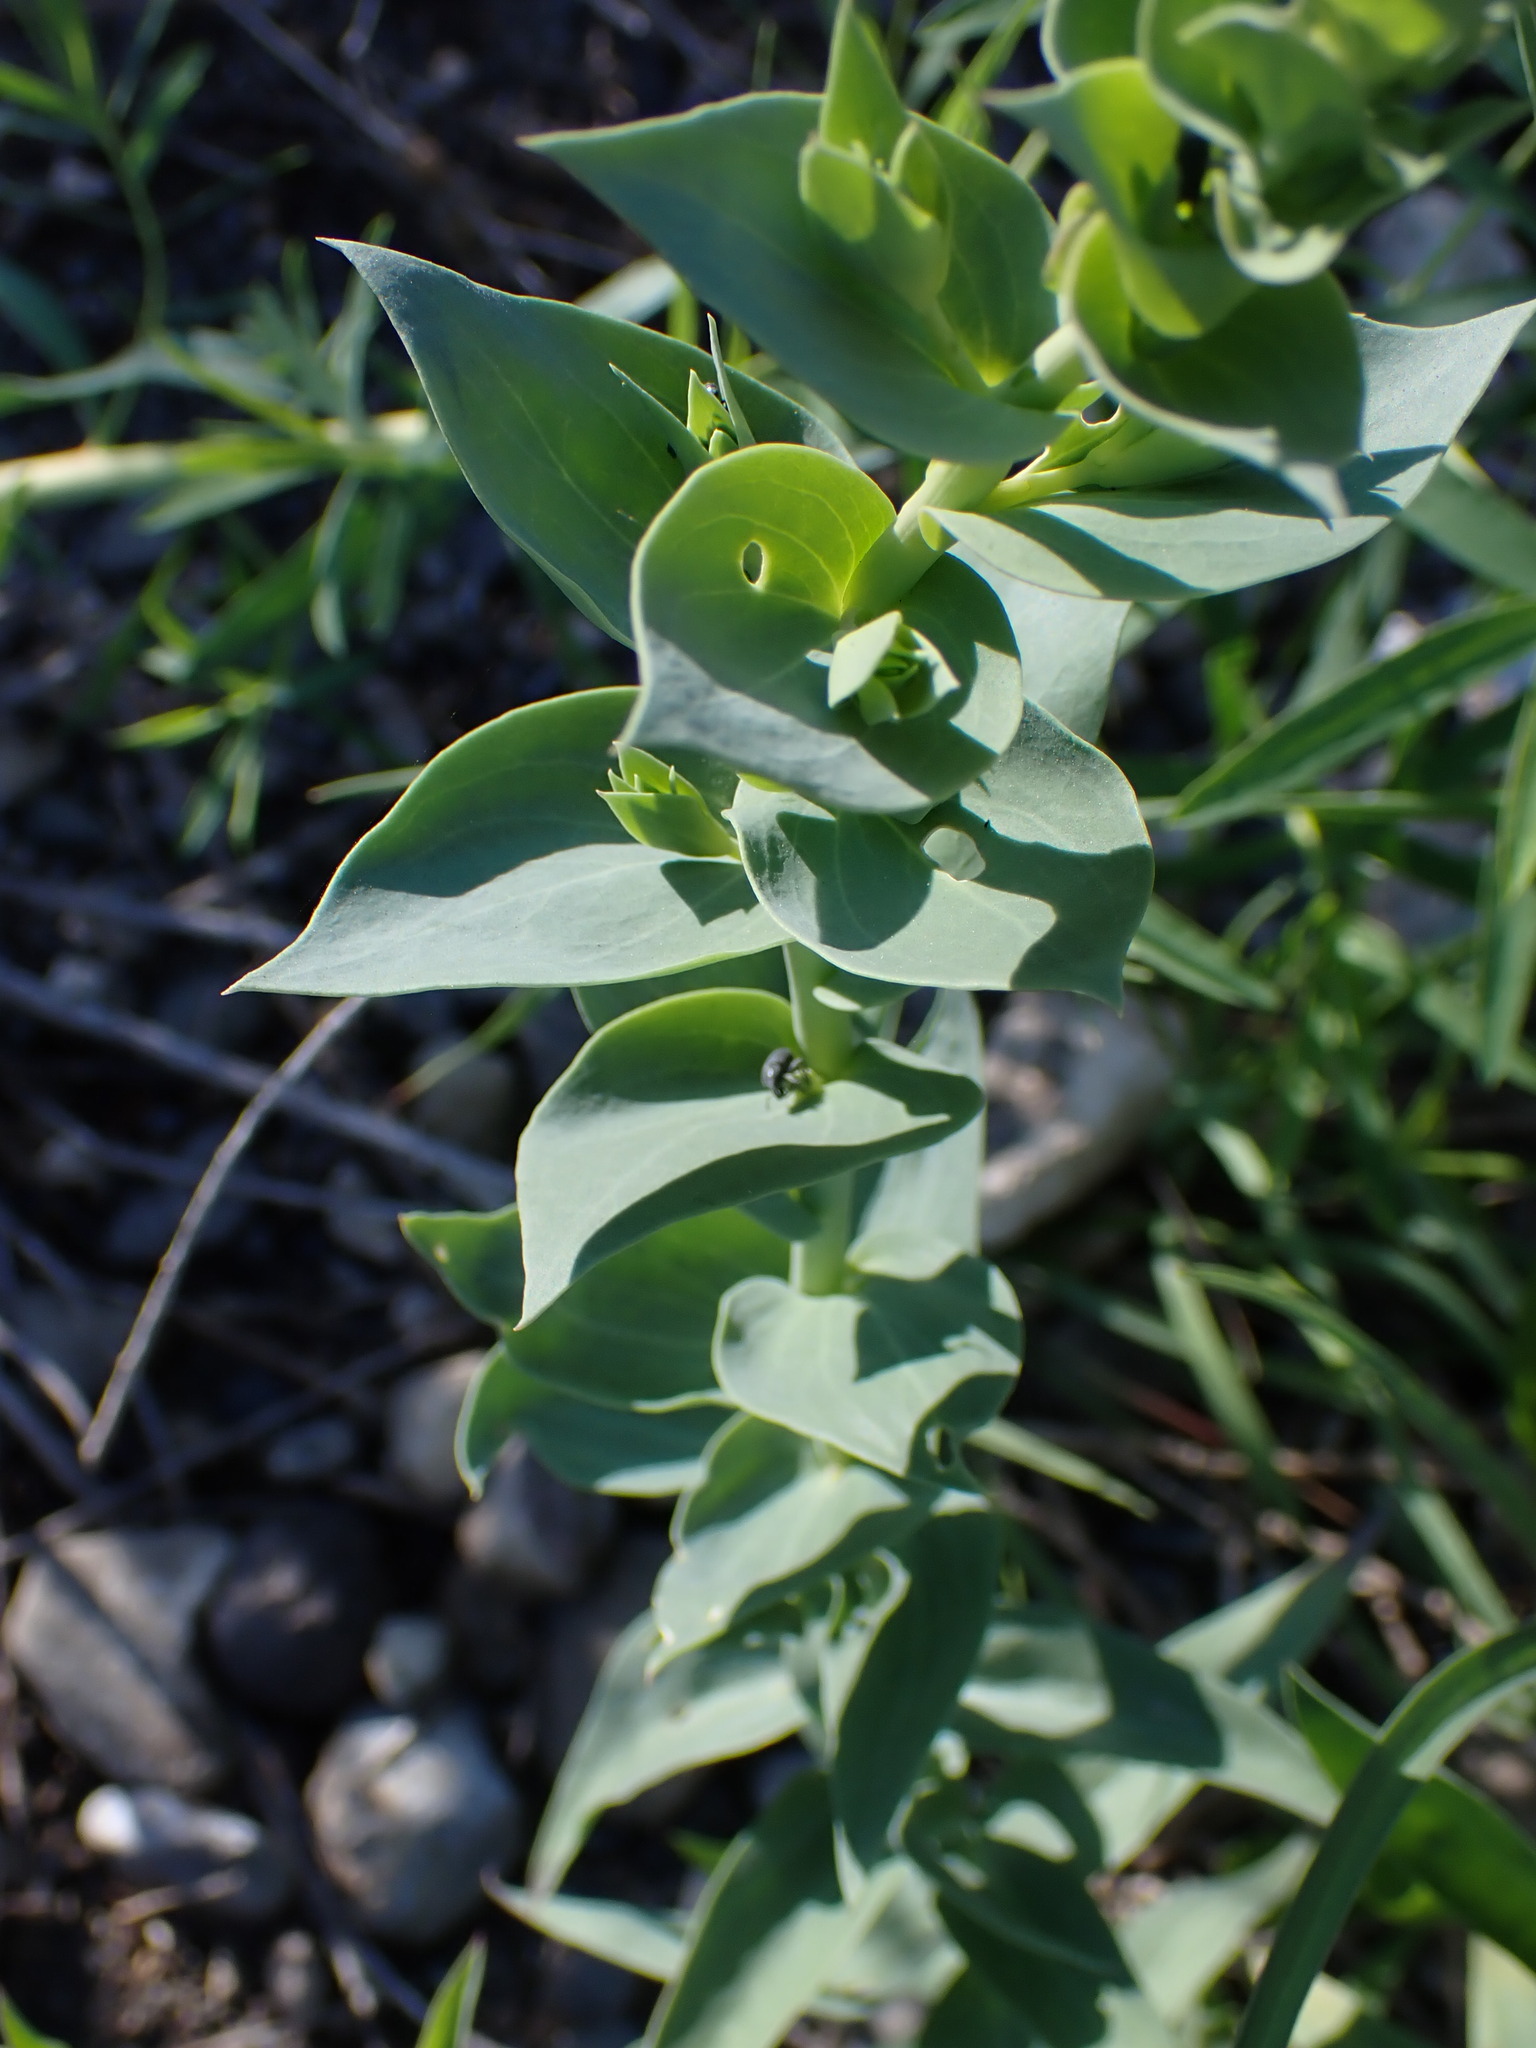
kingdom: Plantae
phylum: Tracheophyta
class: Magnoliopsida
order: Lamiales
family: Plantaginaceae
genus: Linaria
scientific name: Linaria dalmatica
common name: Dalmatian toadflax
